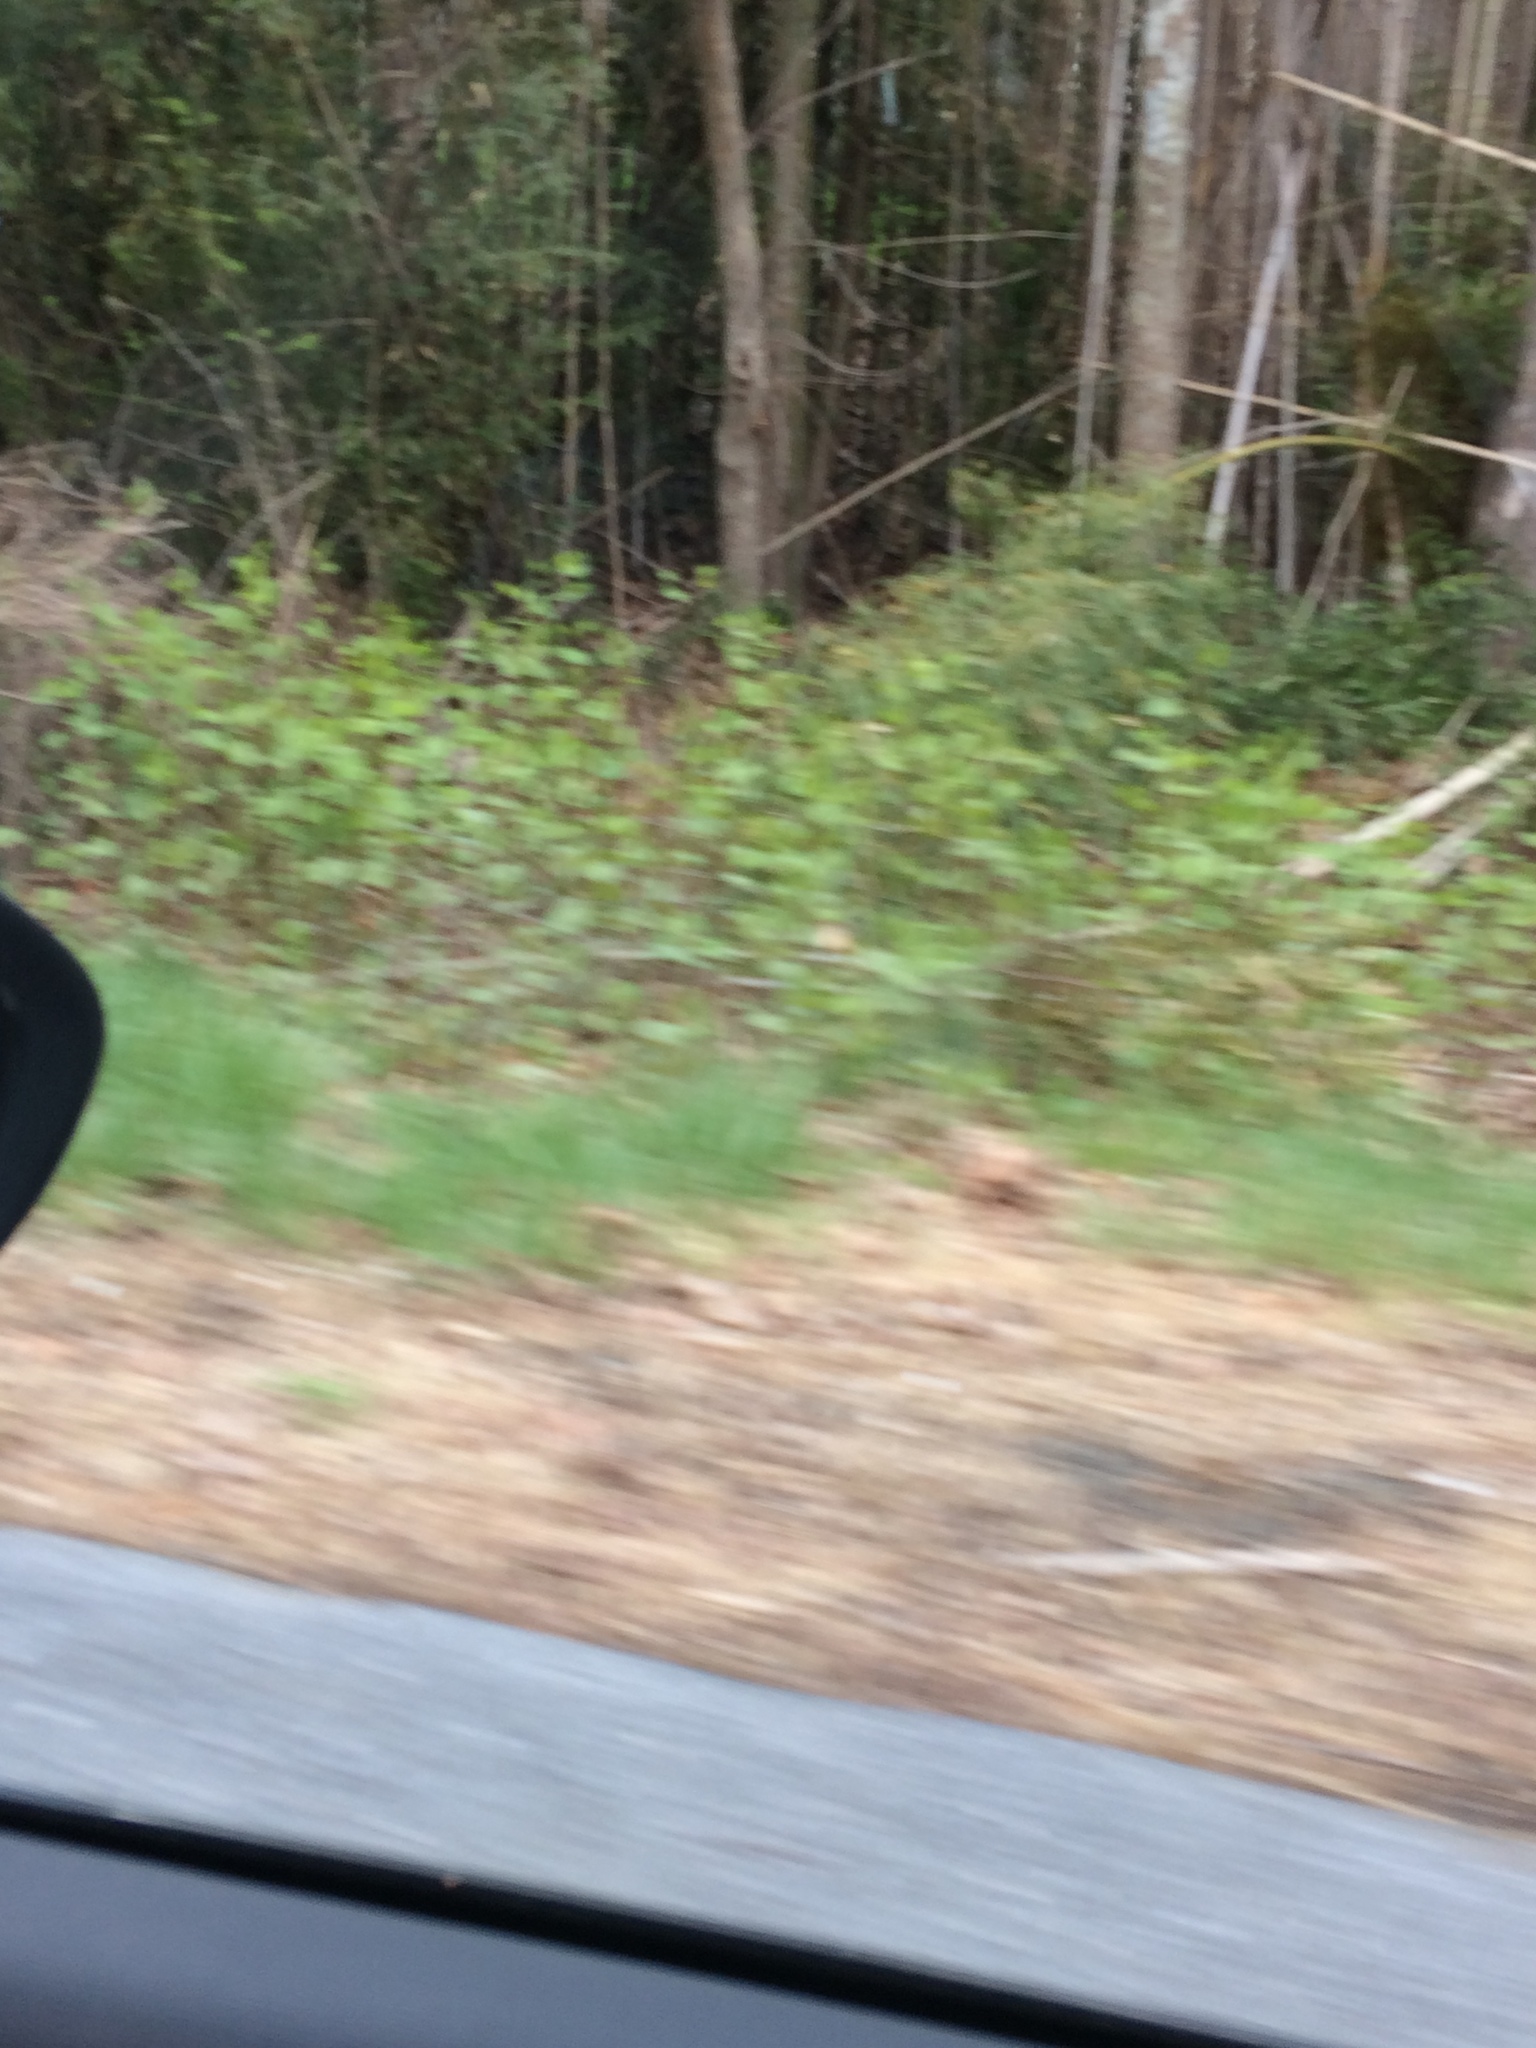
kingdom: Plantae
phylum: Tracheophyta
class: Magnoliopsida
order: Caryophyllales
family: Polygonaceae
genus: Reynoutria
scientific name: Reynoutria japonica
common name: Japanese knotweed
